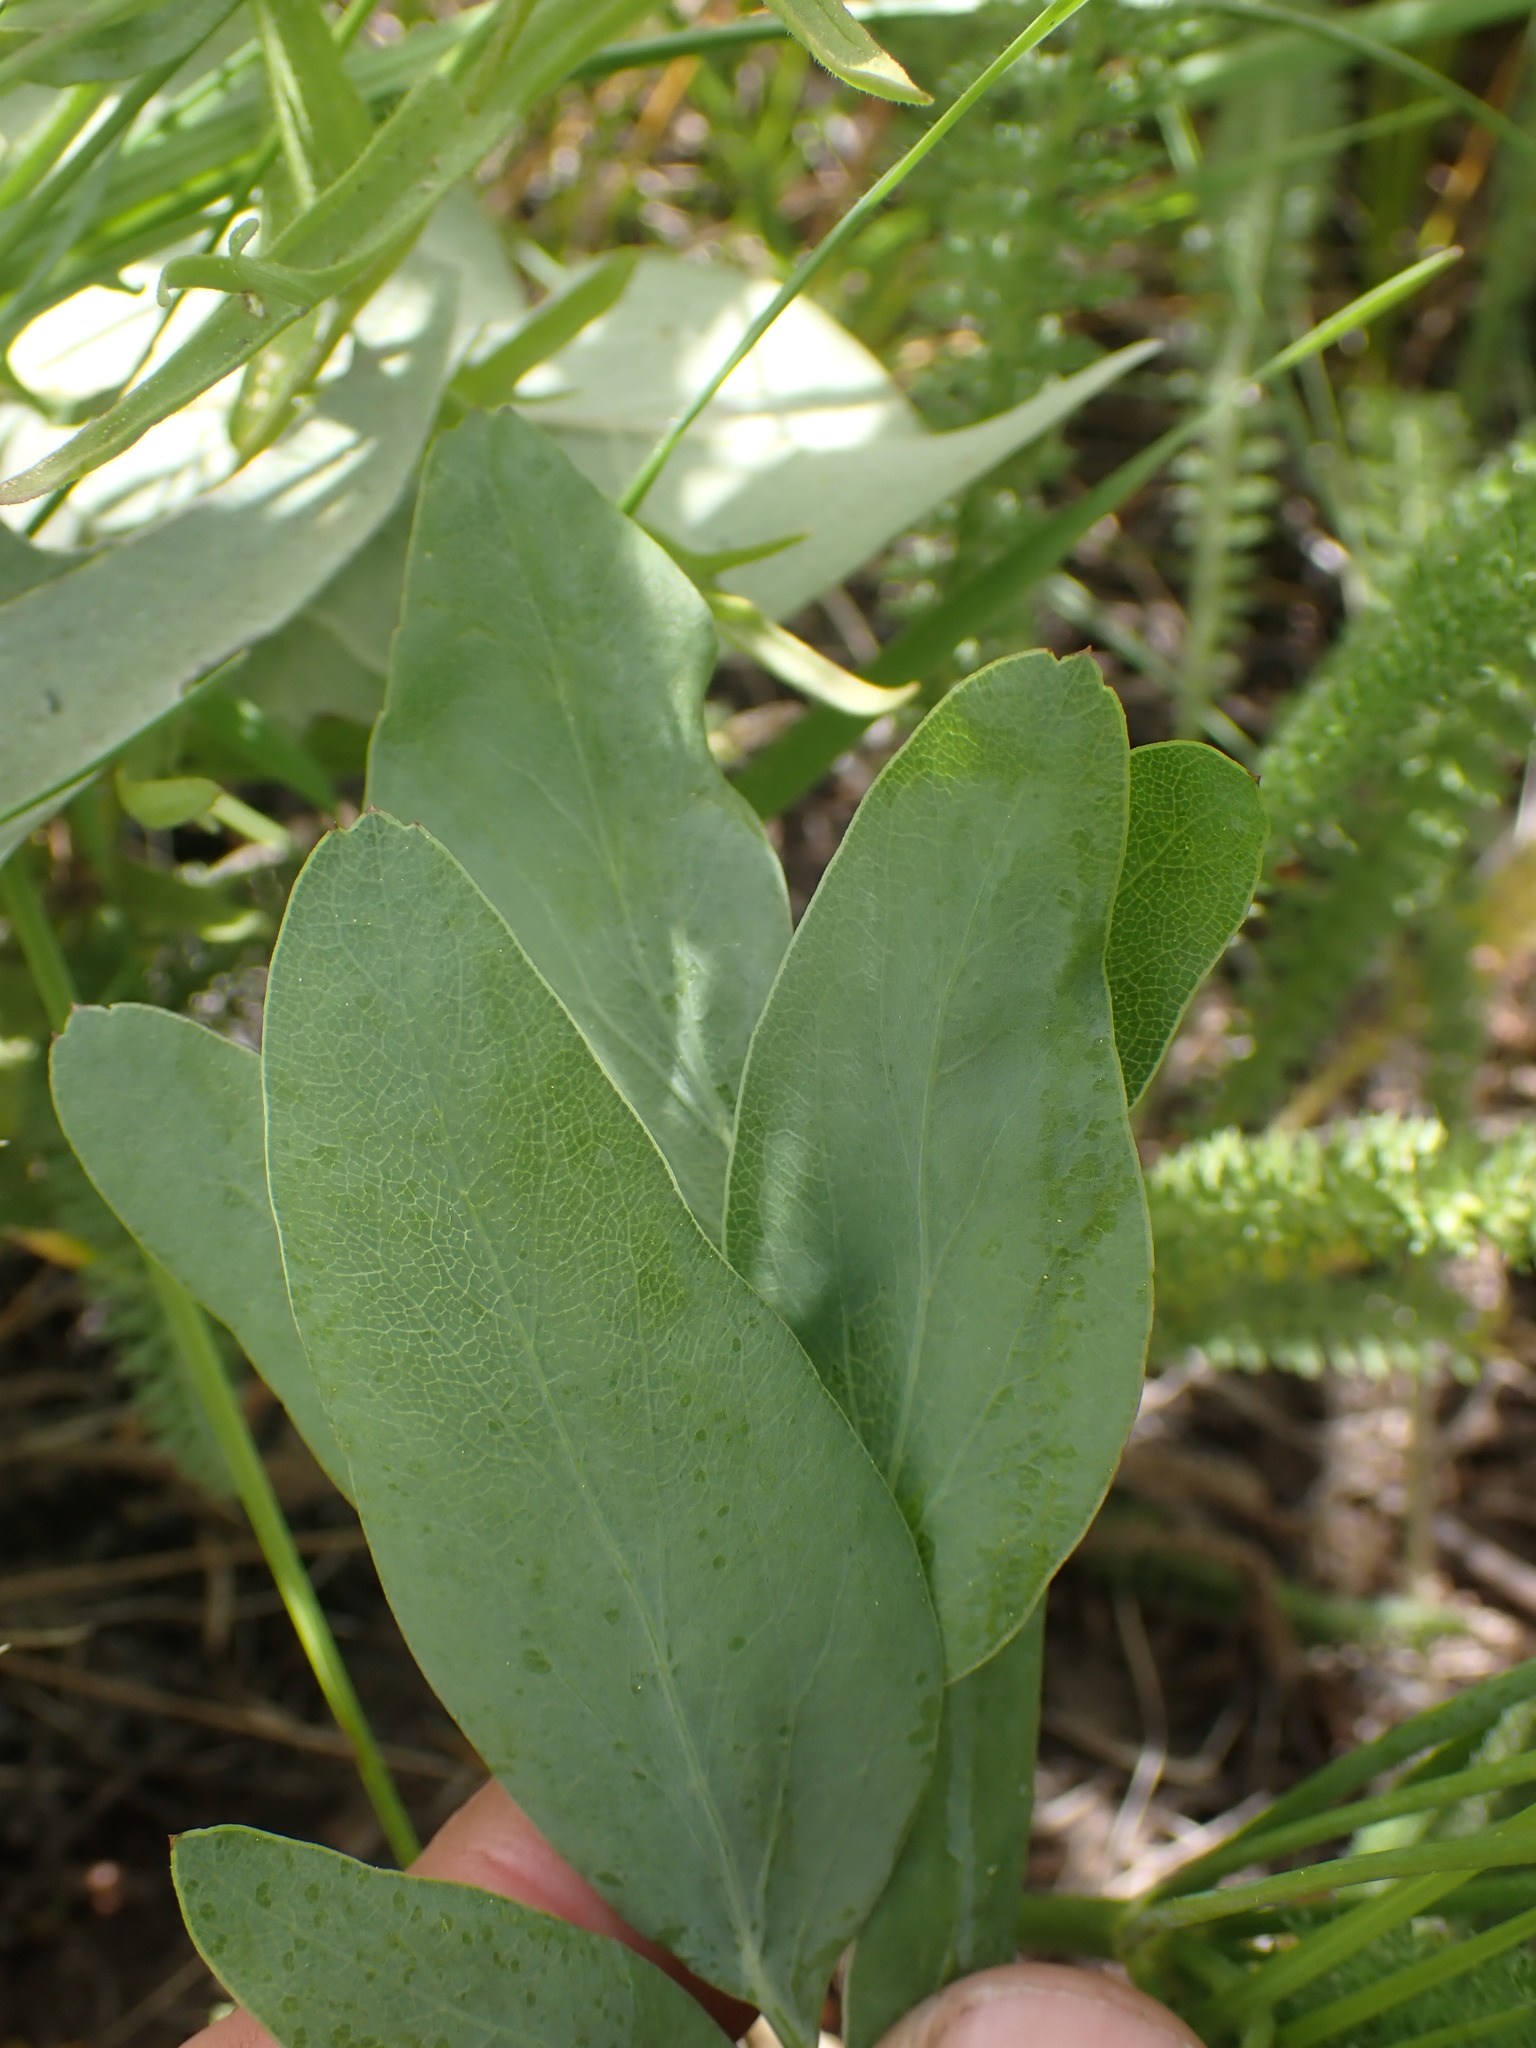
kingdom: Plantae
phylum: Tracheophyta
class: Magnoliopsida
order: Apiales
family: Apiaceae
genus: Lomatium
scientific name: Lomatium nudicaule
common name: Pestle lomatium
